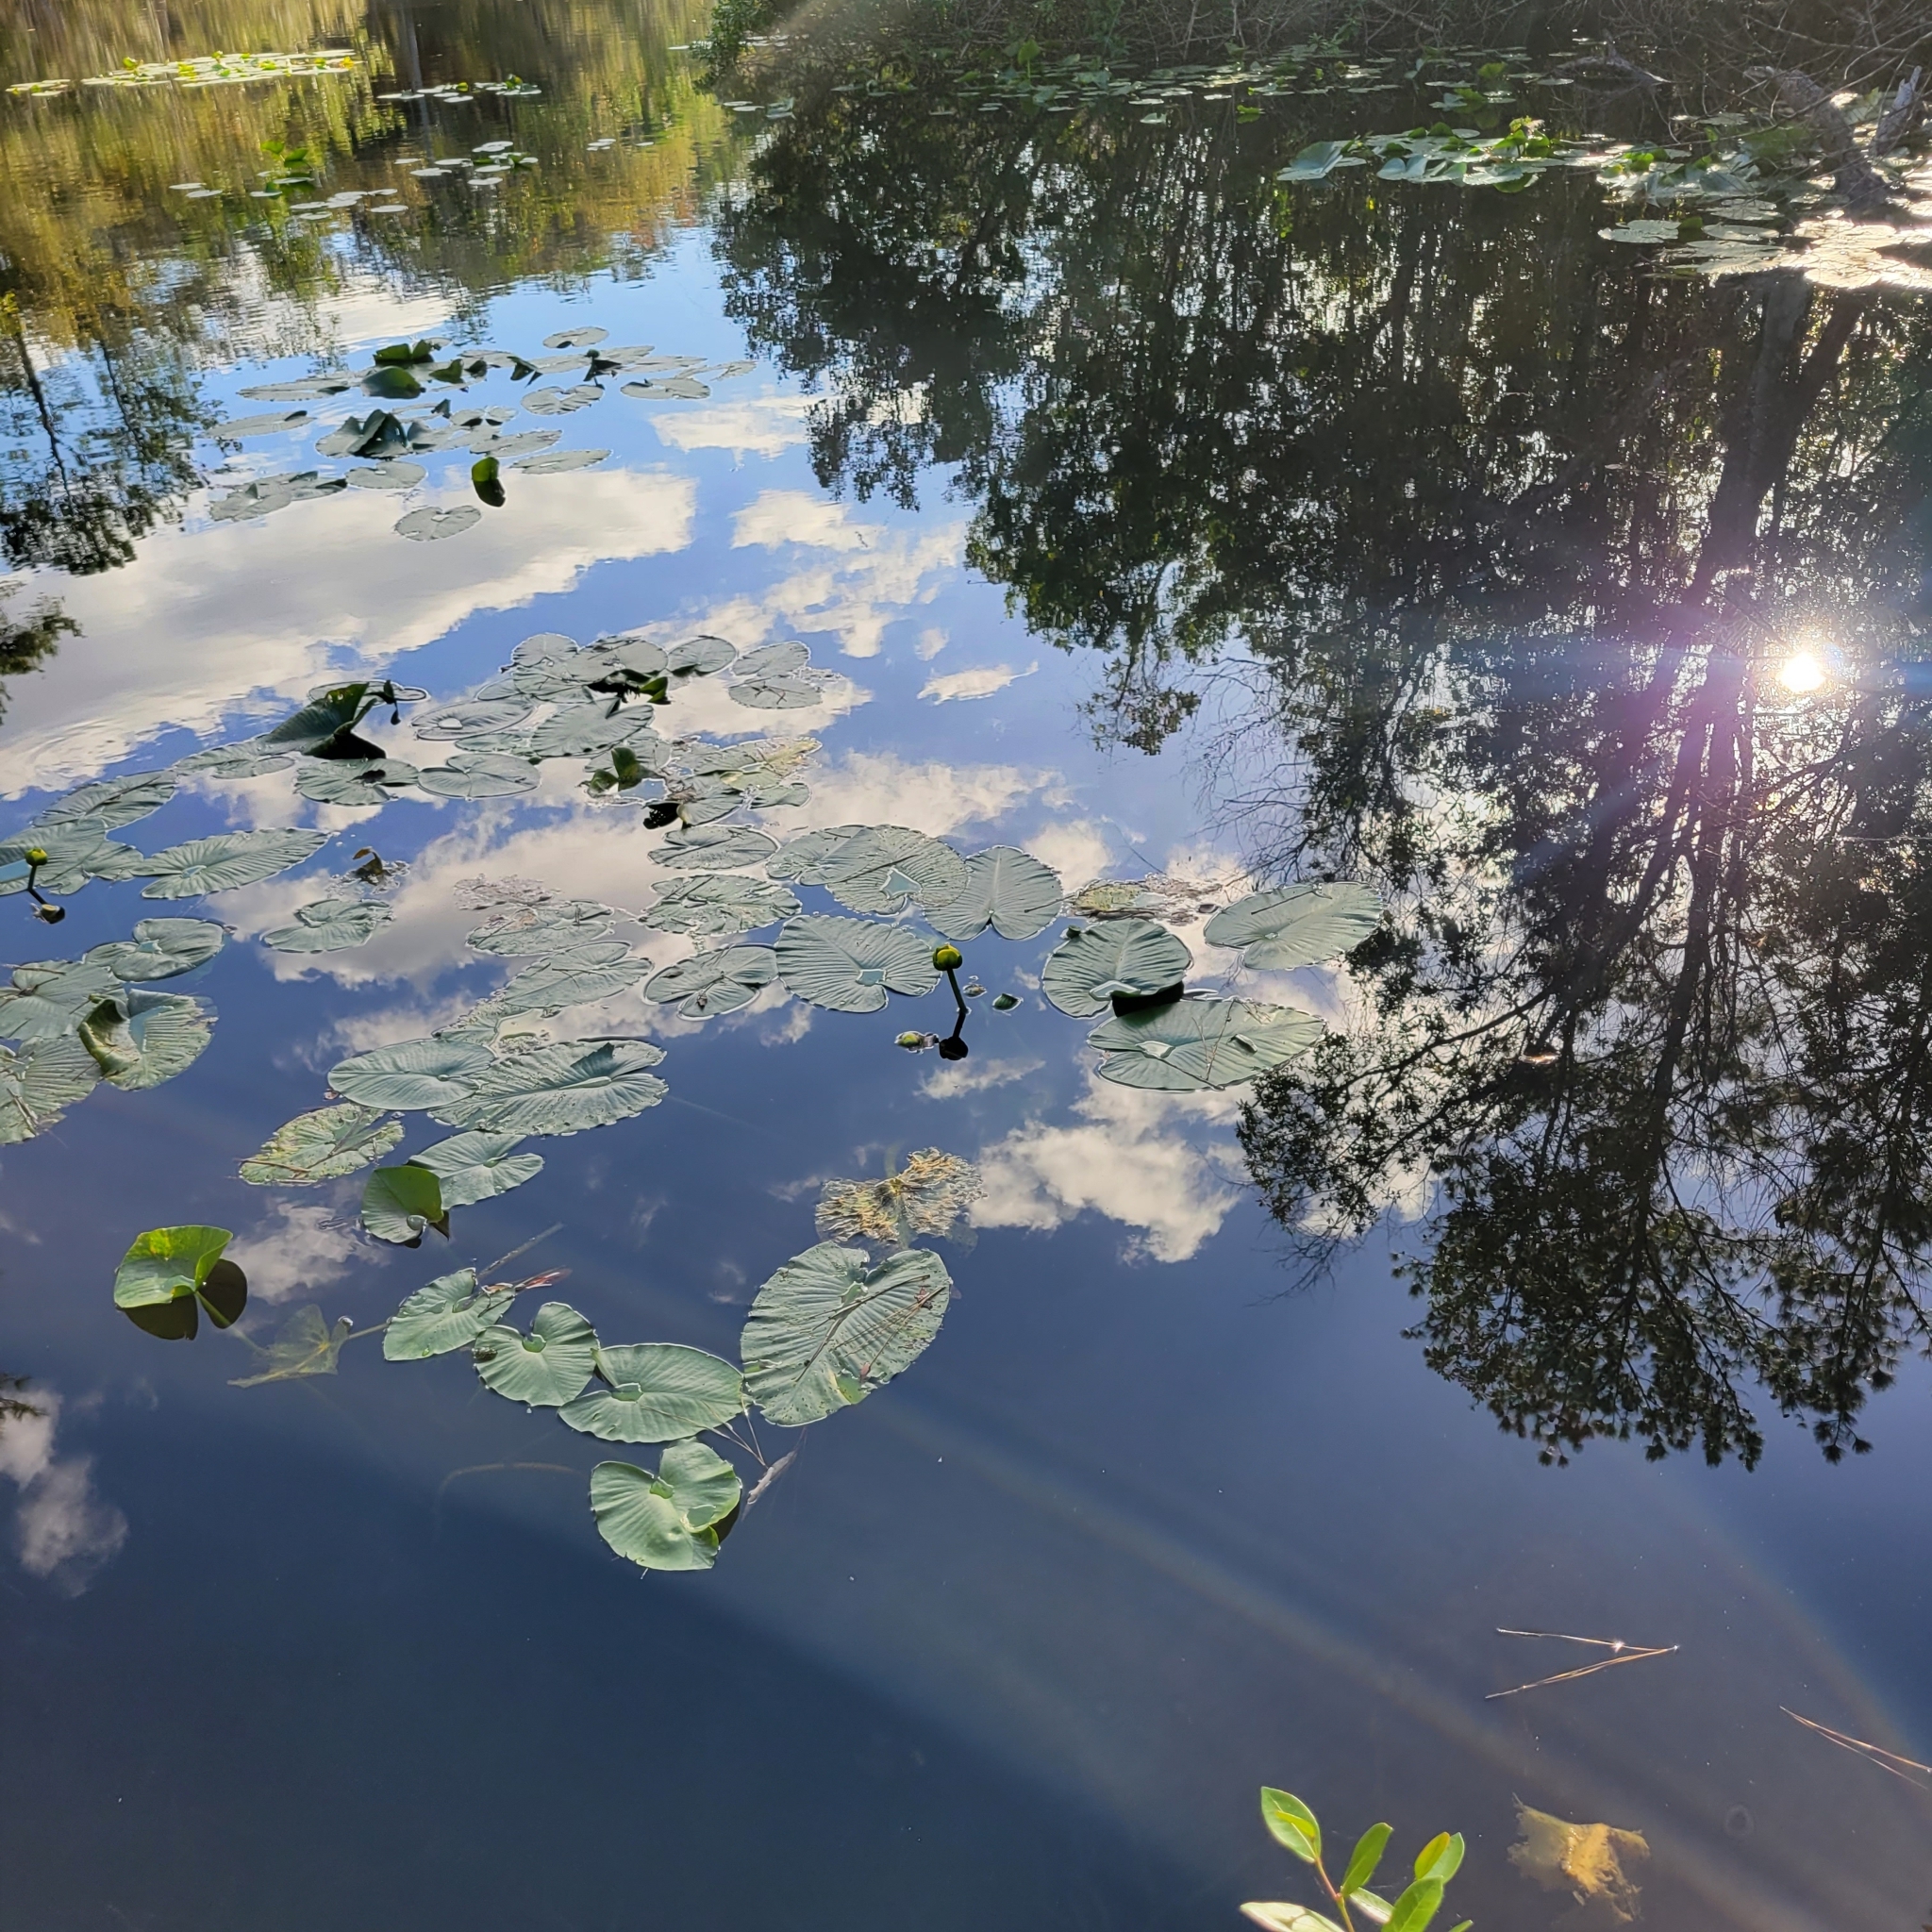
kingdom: Plantae
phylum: Tracheophyta
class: Magnoliopsida
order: Nymphaeales
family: Nymphaeaceae
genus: Nuphar
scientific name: Nuphar advena
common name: Spatter-dock
